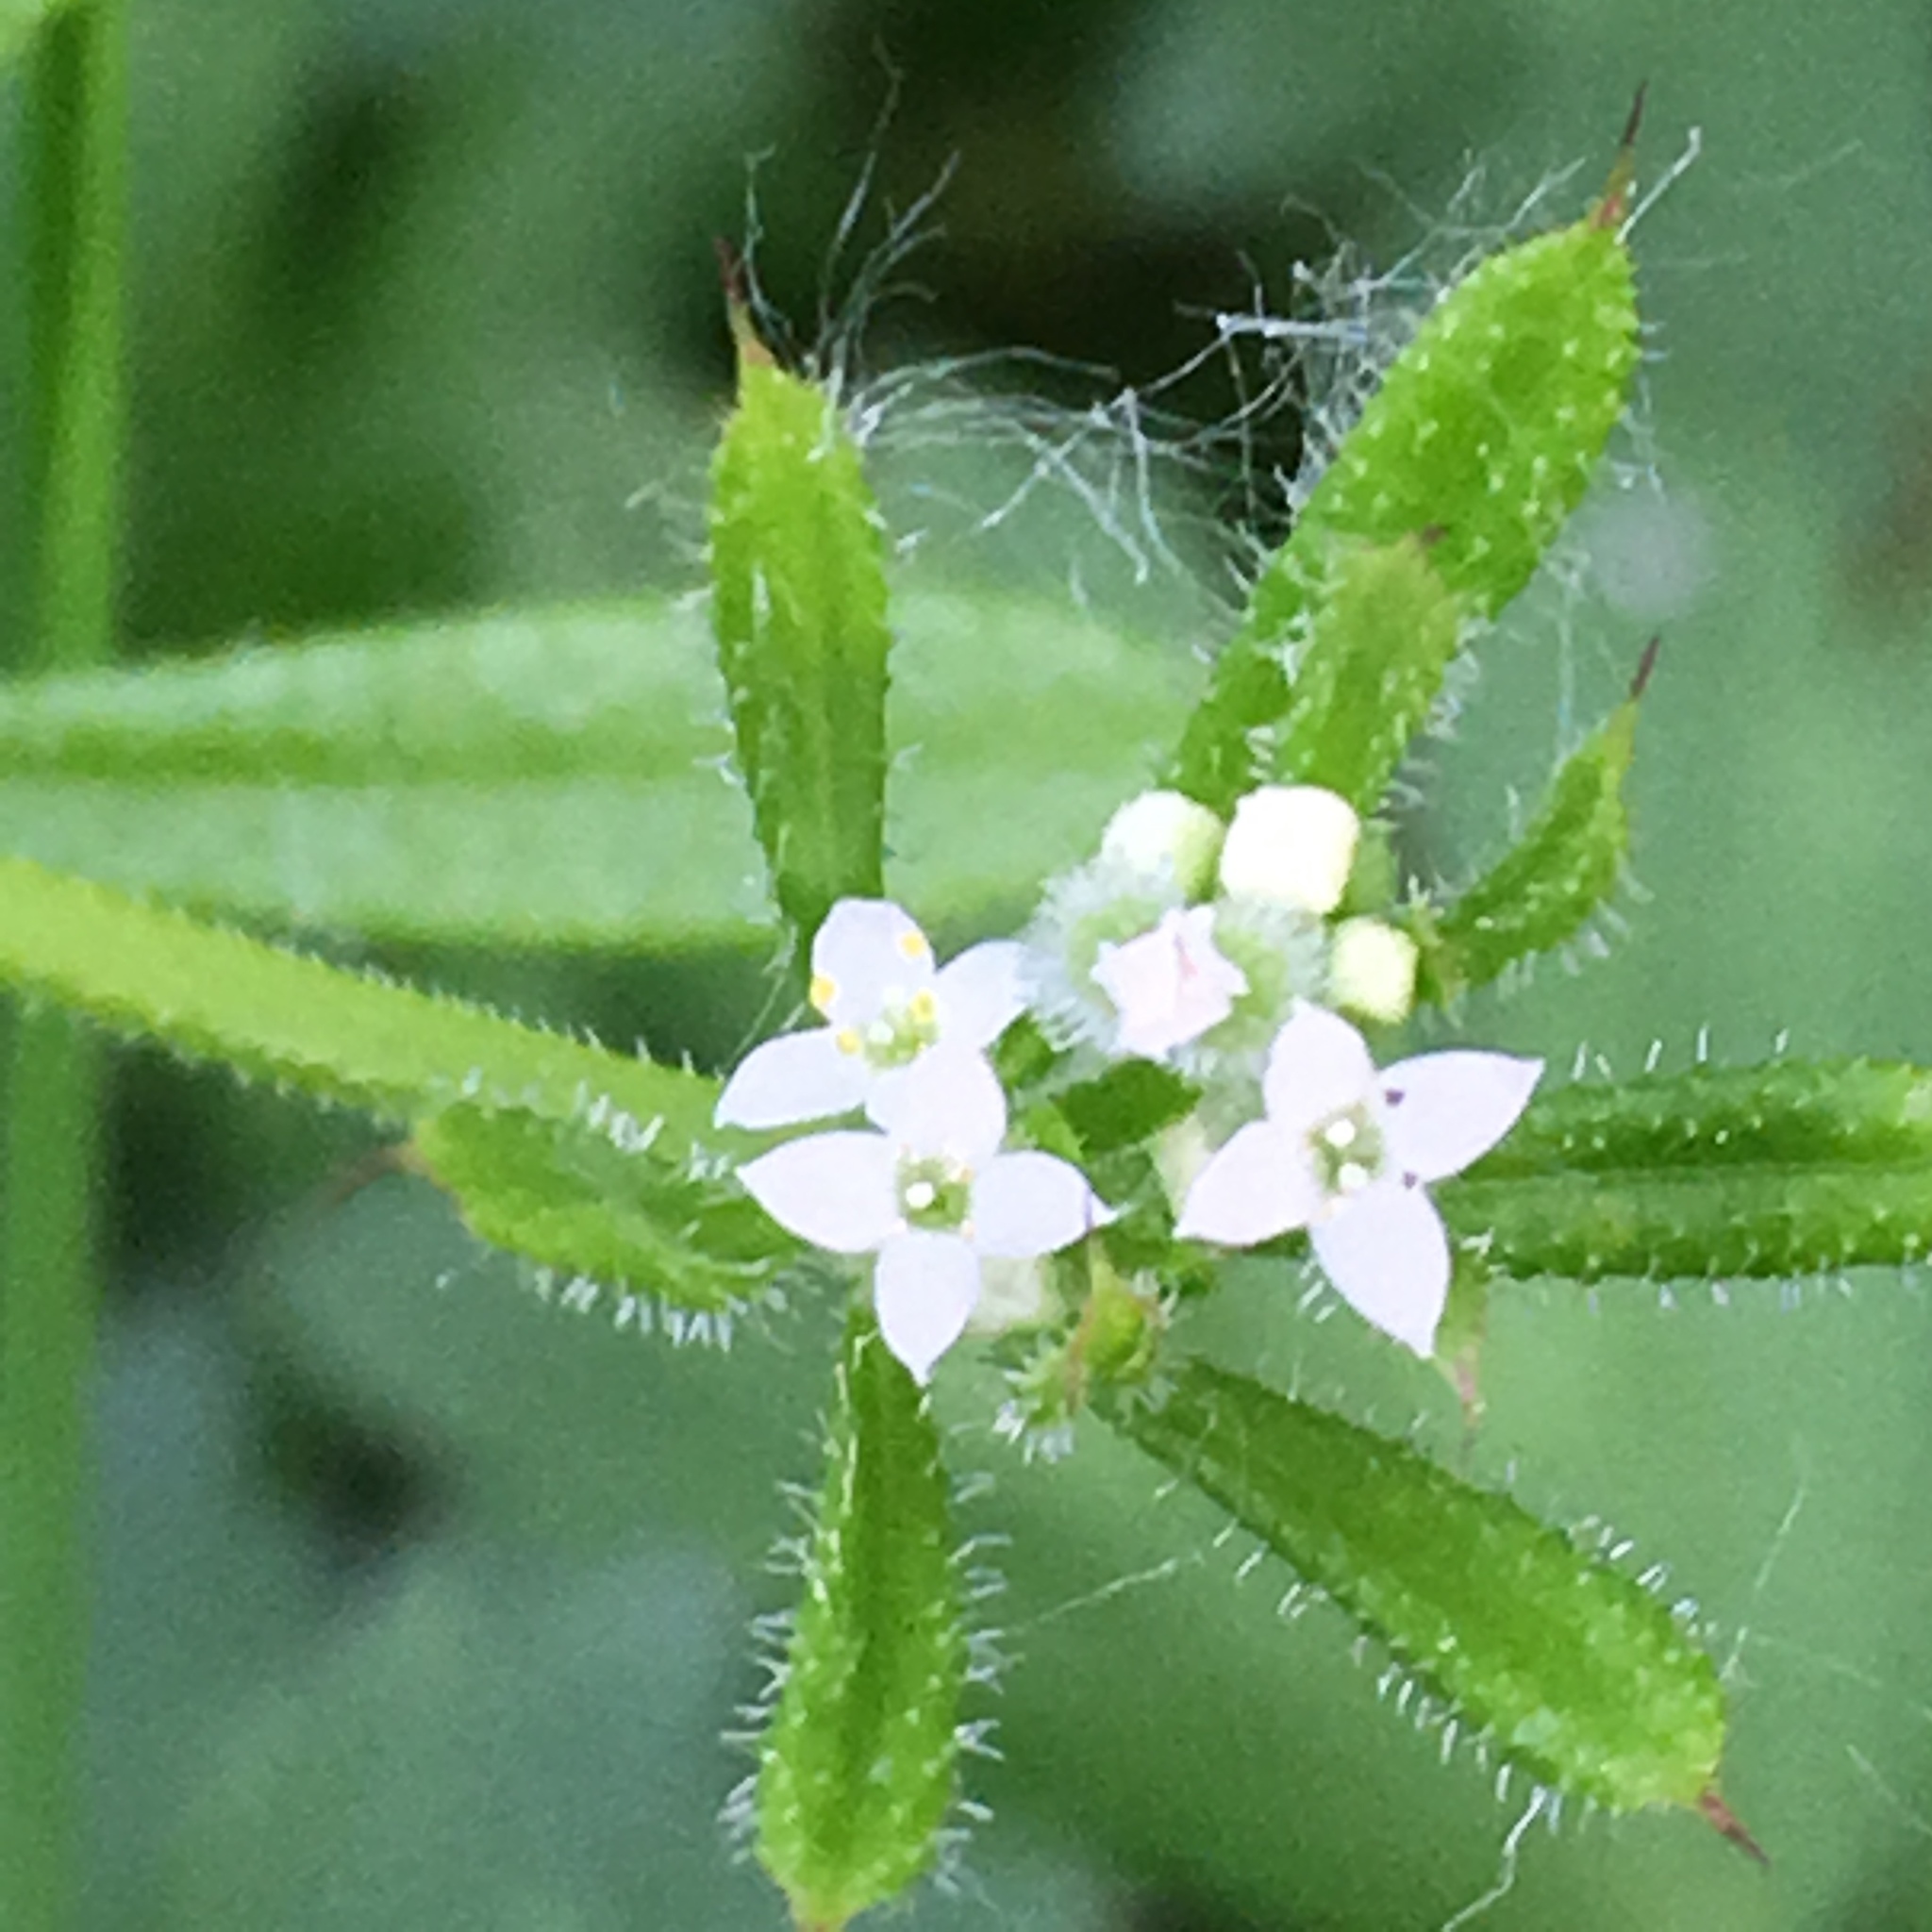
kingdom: Plantae
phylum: Tracheophyta
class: Magnoliopsida
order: Gentianales
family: Rubiaceae
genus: Galium
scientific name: Galium aparine
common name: Cleavers
